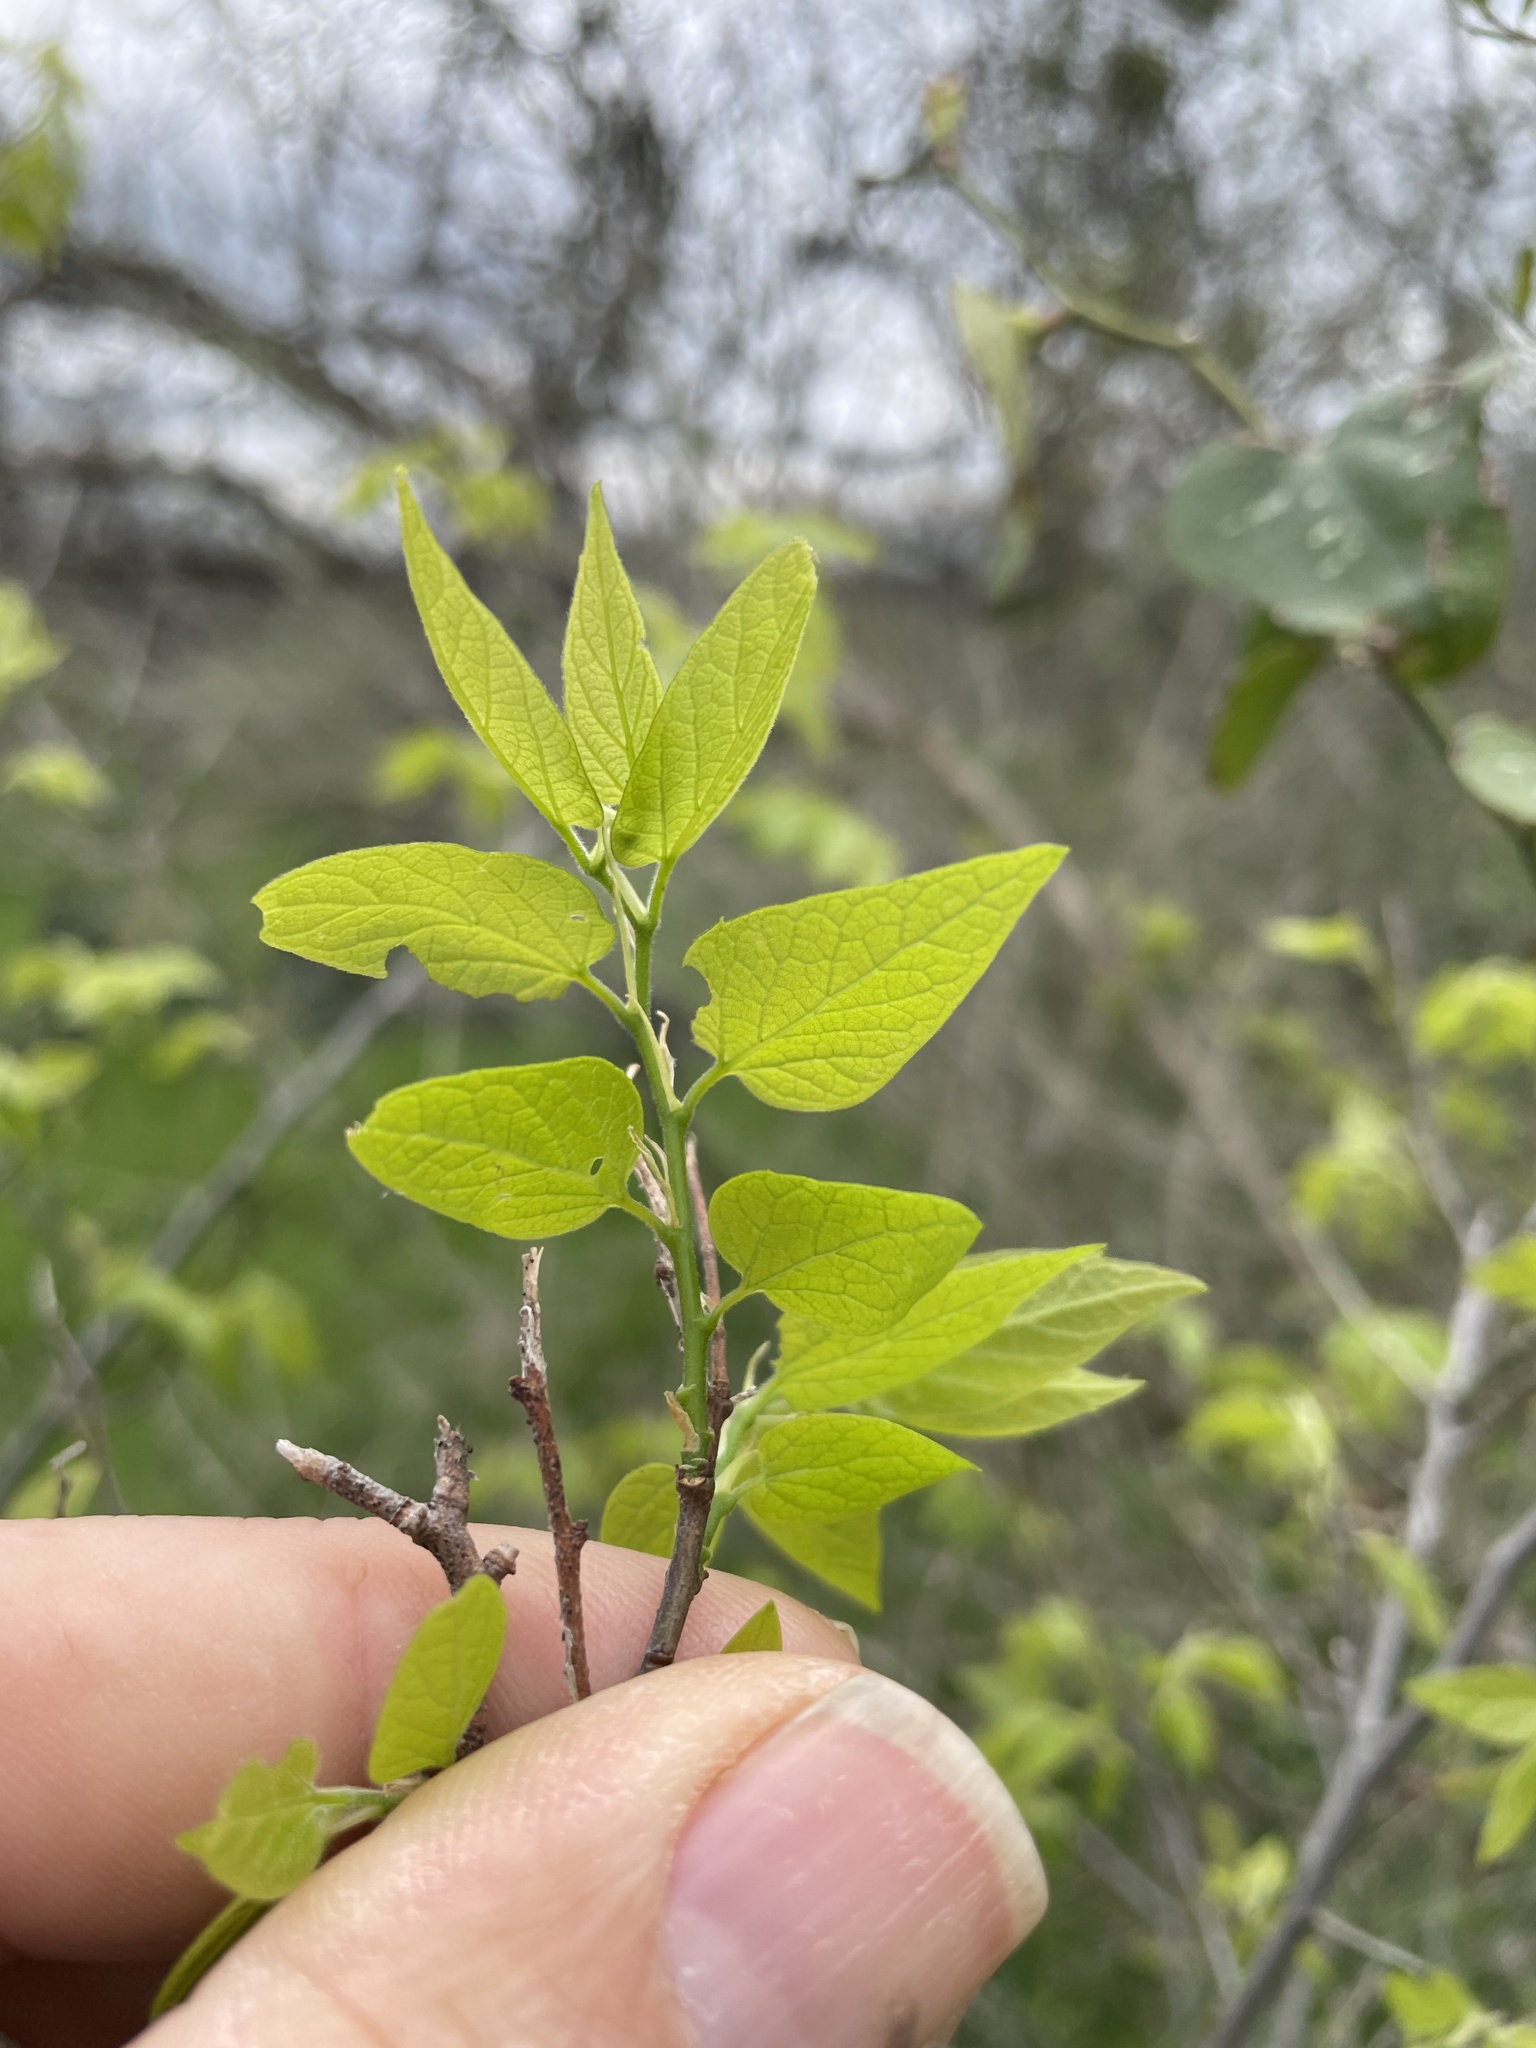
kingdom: Plantae
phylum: Tracheophyta
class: Magnoliopsida
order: Rosales
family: Cannabaceae
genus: Celtis
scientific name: Celtis laevigata
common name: Sugarberry
